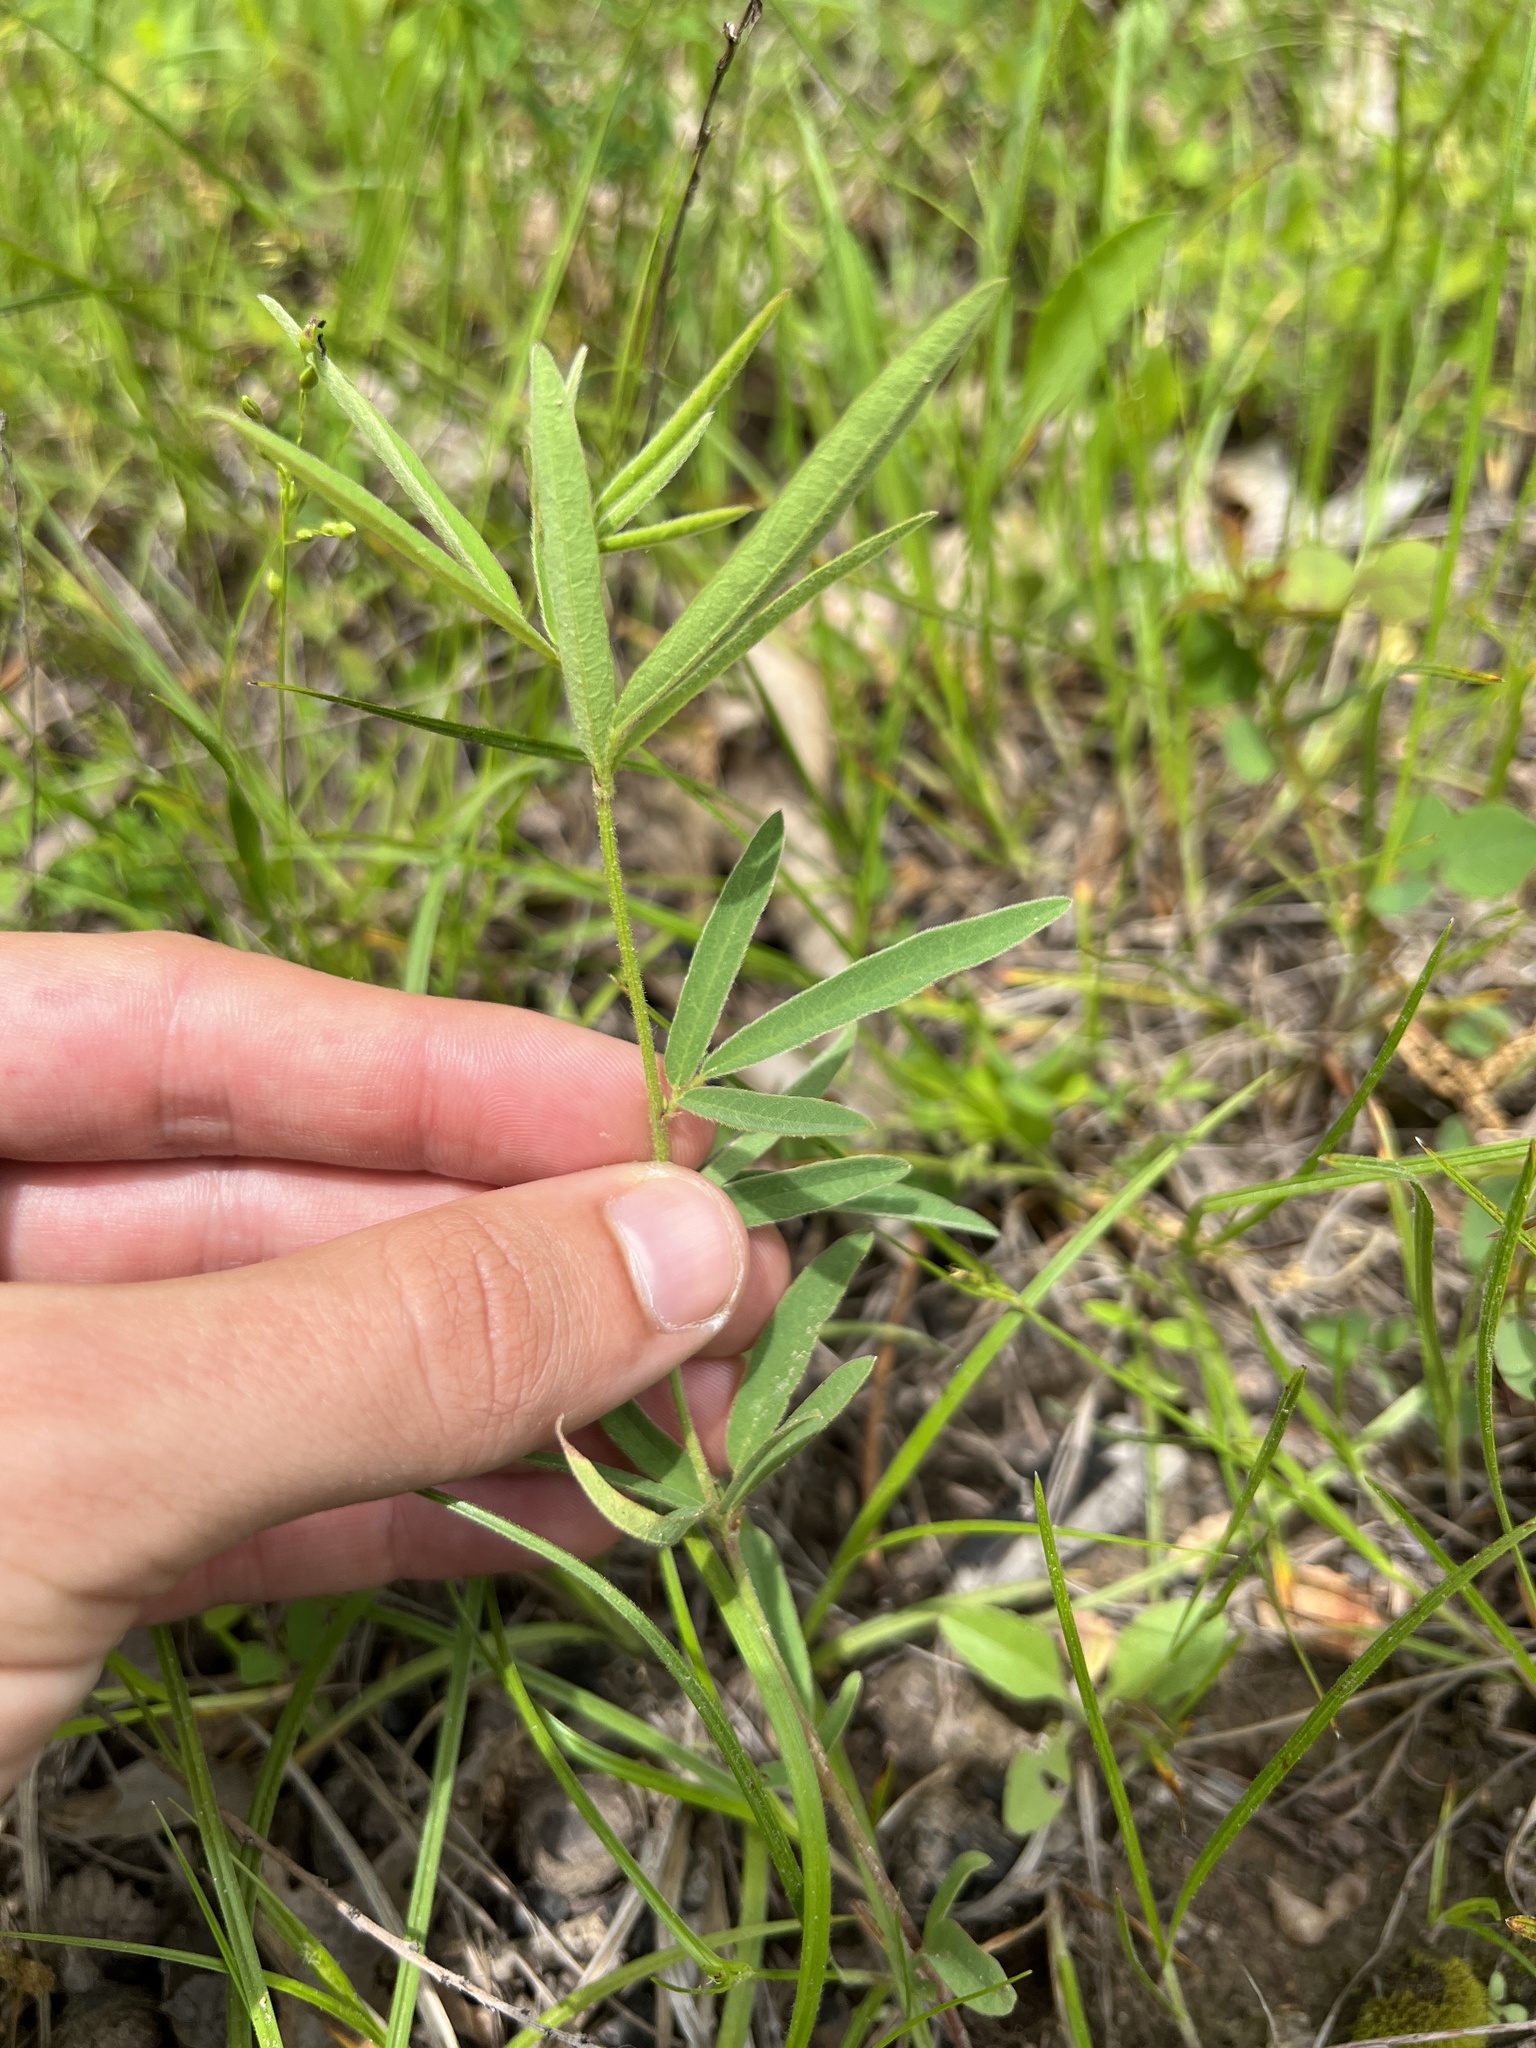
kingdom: Plantae
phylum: Tracheophyta
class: Magnoliopsida
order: Fabales
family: Fabaceae
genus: Desmodium
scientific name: Desmodium sessilifolium
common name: Sessile tick-clover
